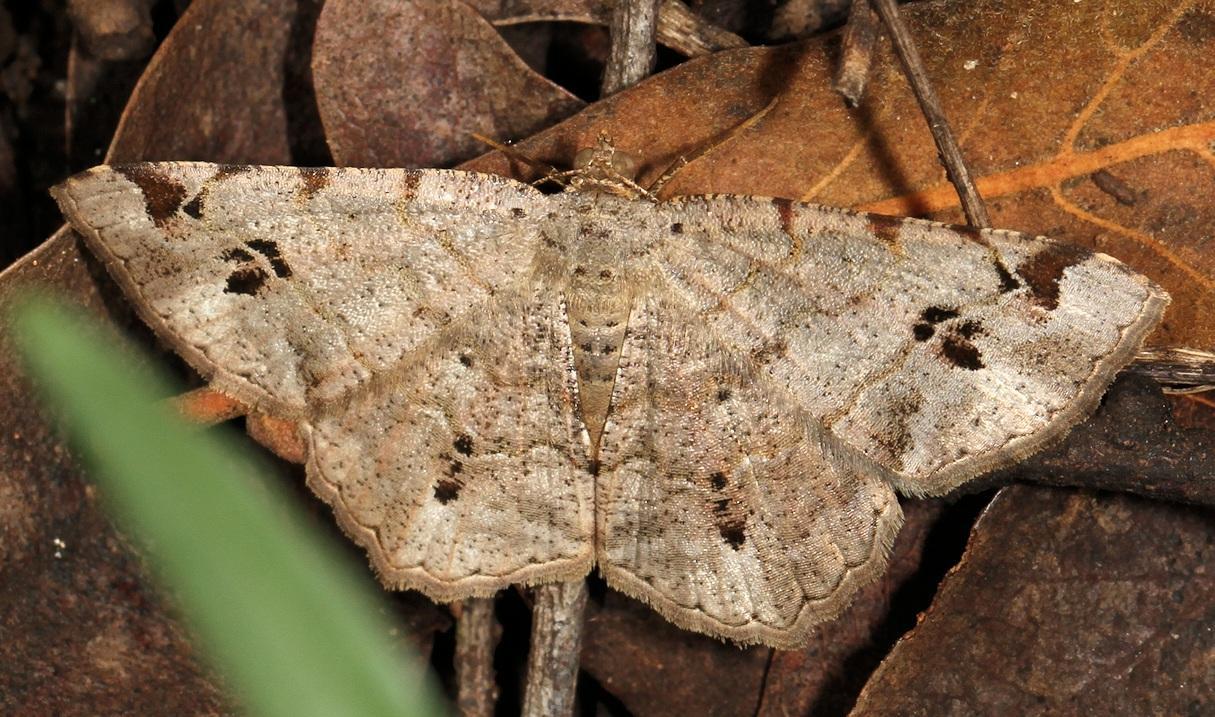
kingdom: Animalia
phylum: Arthropoda
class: Insecta
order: Lepidoptera
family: Geometridae
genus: Chiasmia
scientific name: Chiasmia deceptrix
